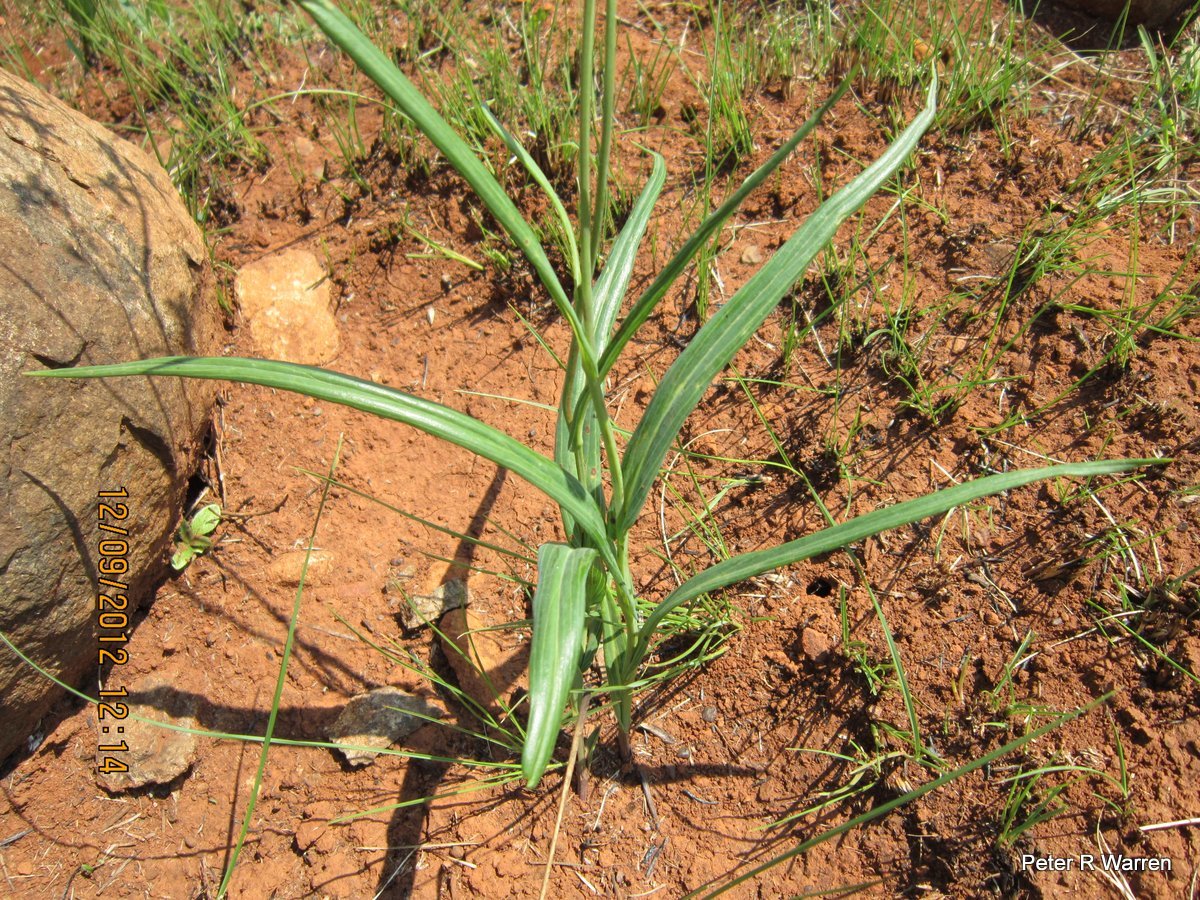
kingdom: Plantae
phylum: Tracheophyta
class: Magnoliopsida
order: Asterales
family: Asteraceae
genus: Senecio
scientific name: Senecio bupleuroides
